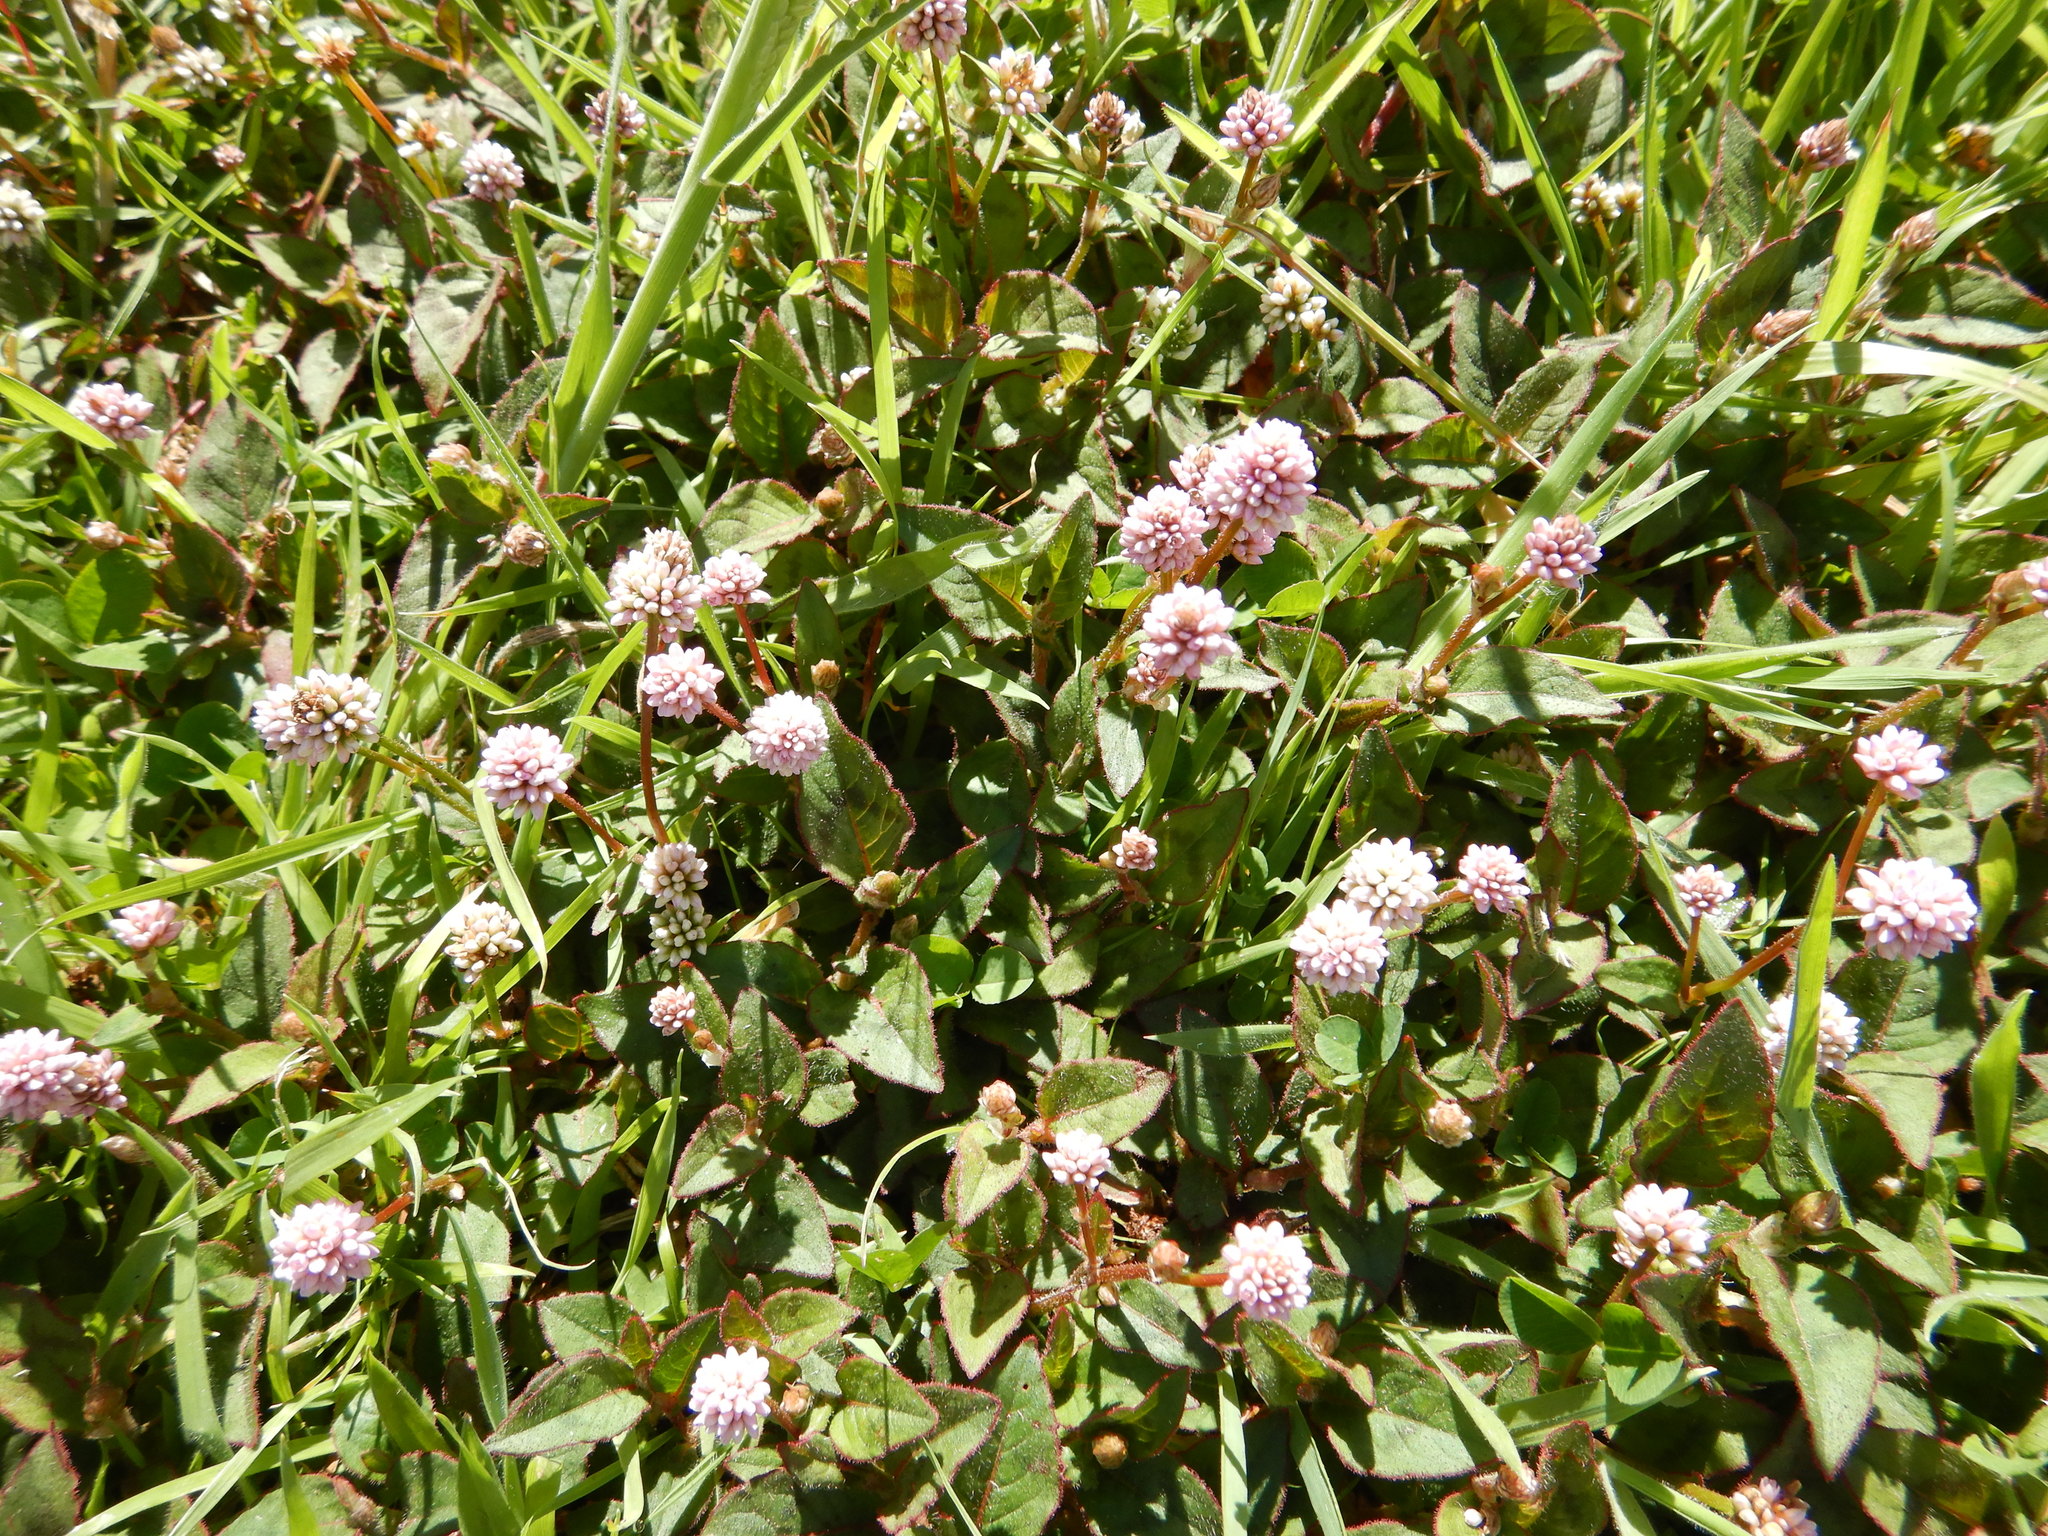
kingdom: Plantae
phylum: Tracheophyta
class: Magnoliopsida
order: Caryophyllales
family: Polygonaceae
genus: Persicaria
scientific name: Persicaria capitata
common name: Pinkhead smartweed
